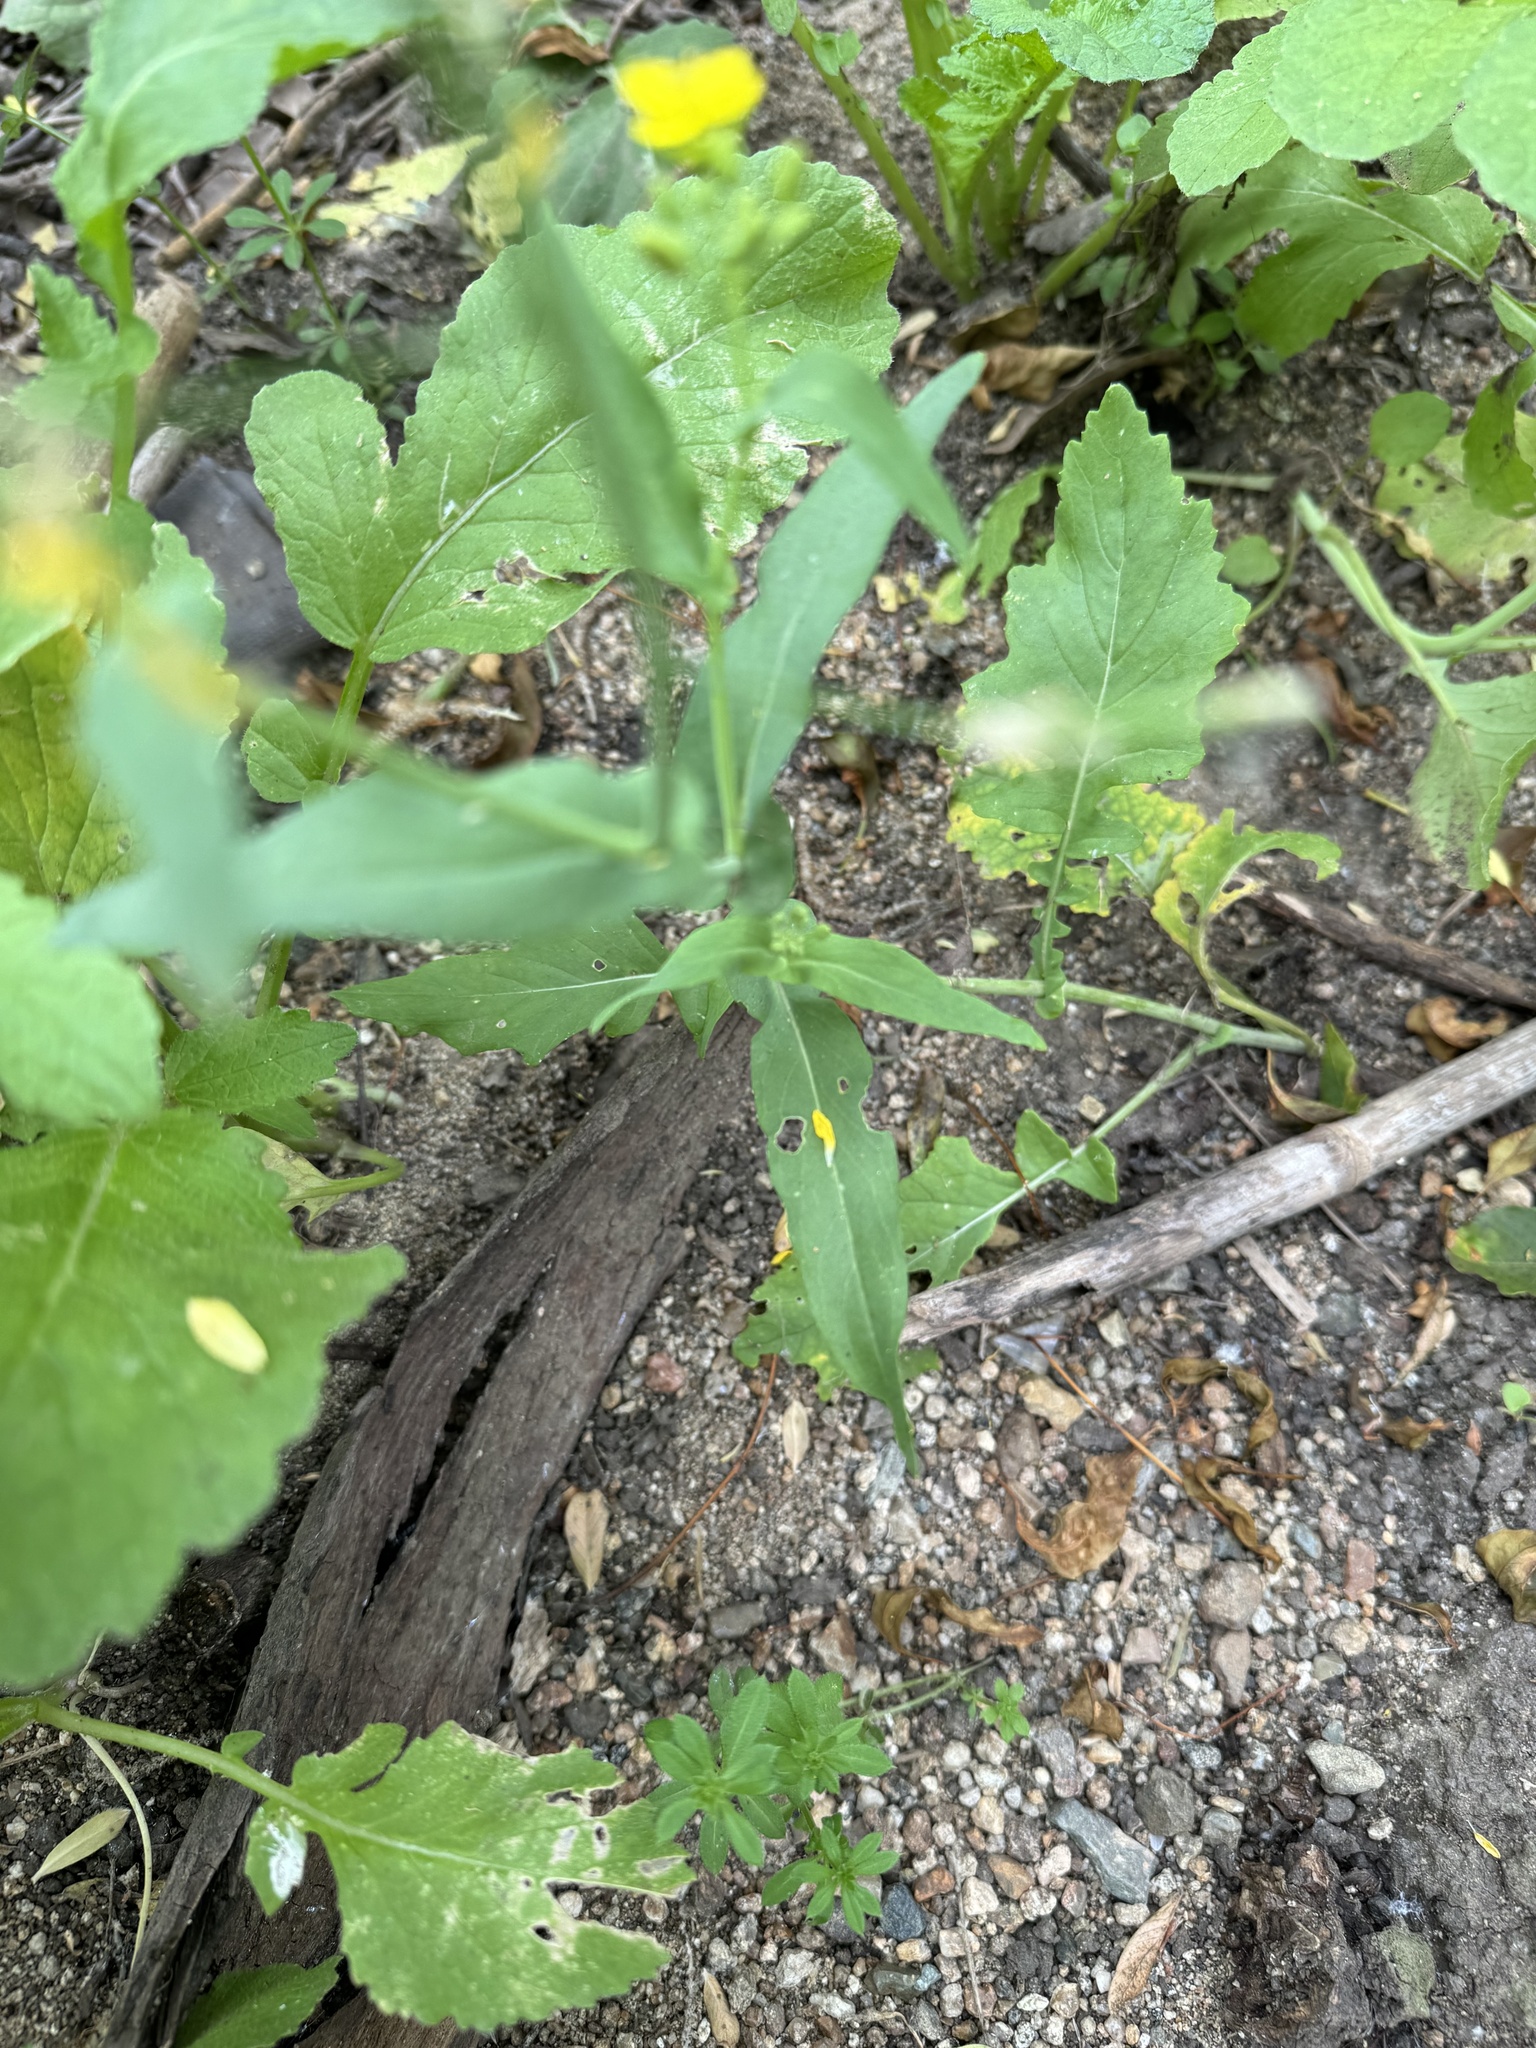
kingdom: Plantae
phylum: Tracheophyta
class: Magnoliopsida
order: Brassicales
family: Brassicaceae
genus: Brassica
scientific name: Brassica rapa
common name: Field mustard
